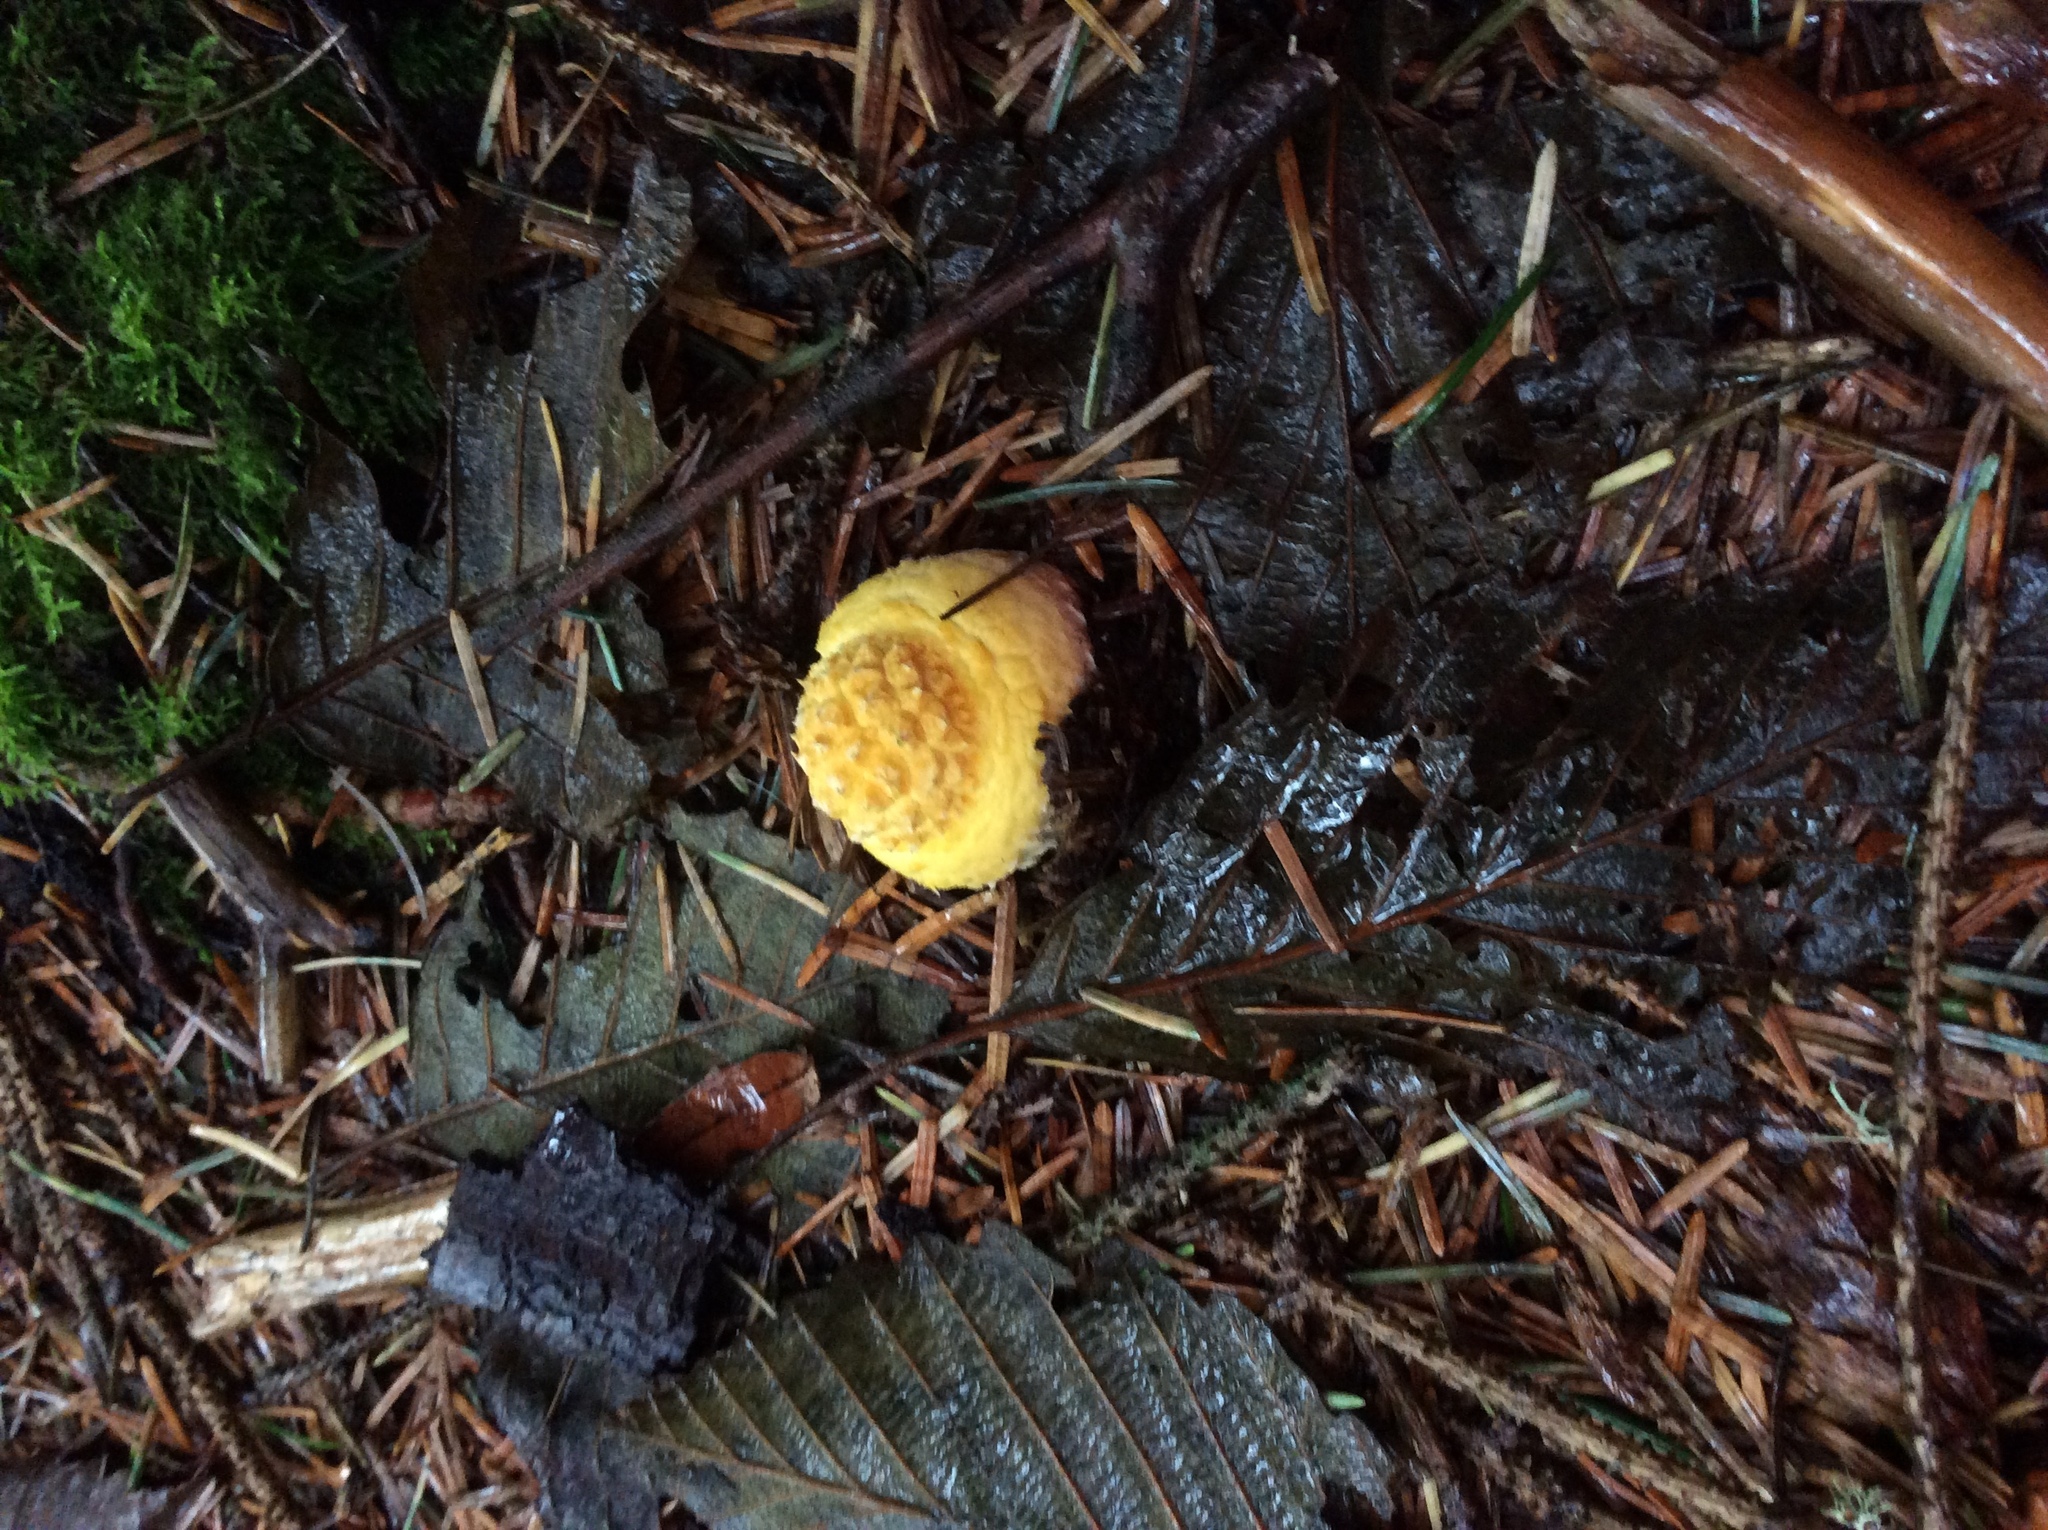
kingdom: Fungi
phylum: Basidiomycota
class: Agaricomycetes
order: Agaricales
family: Amanitaceae
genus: Amanita
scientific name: Amanita muscaria
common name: Fly agaric
